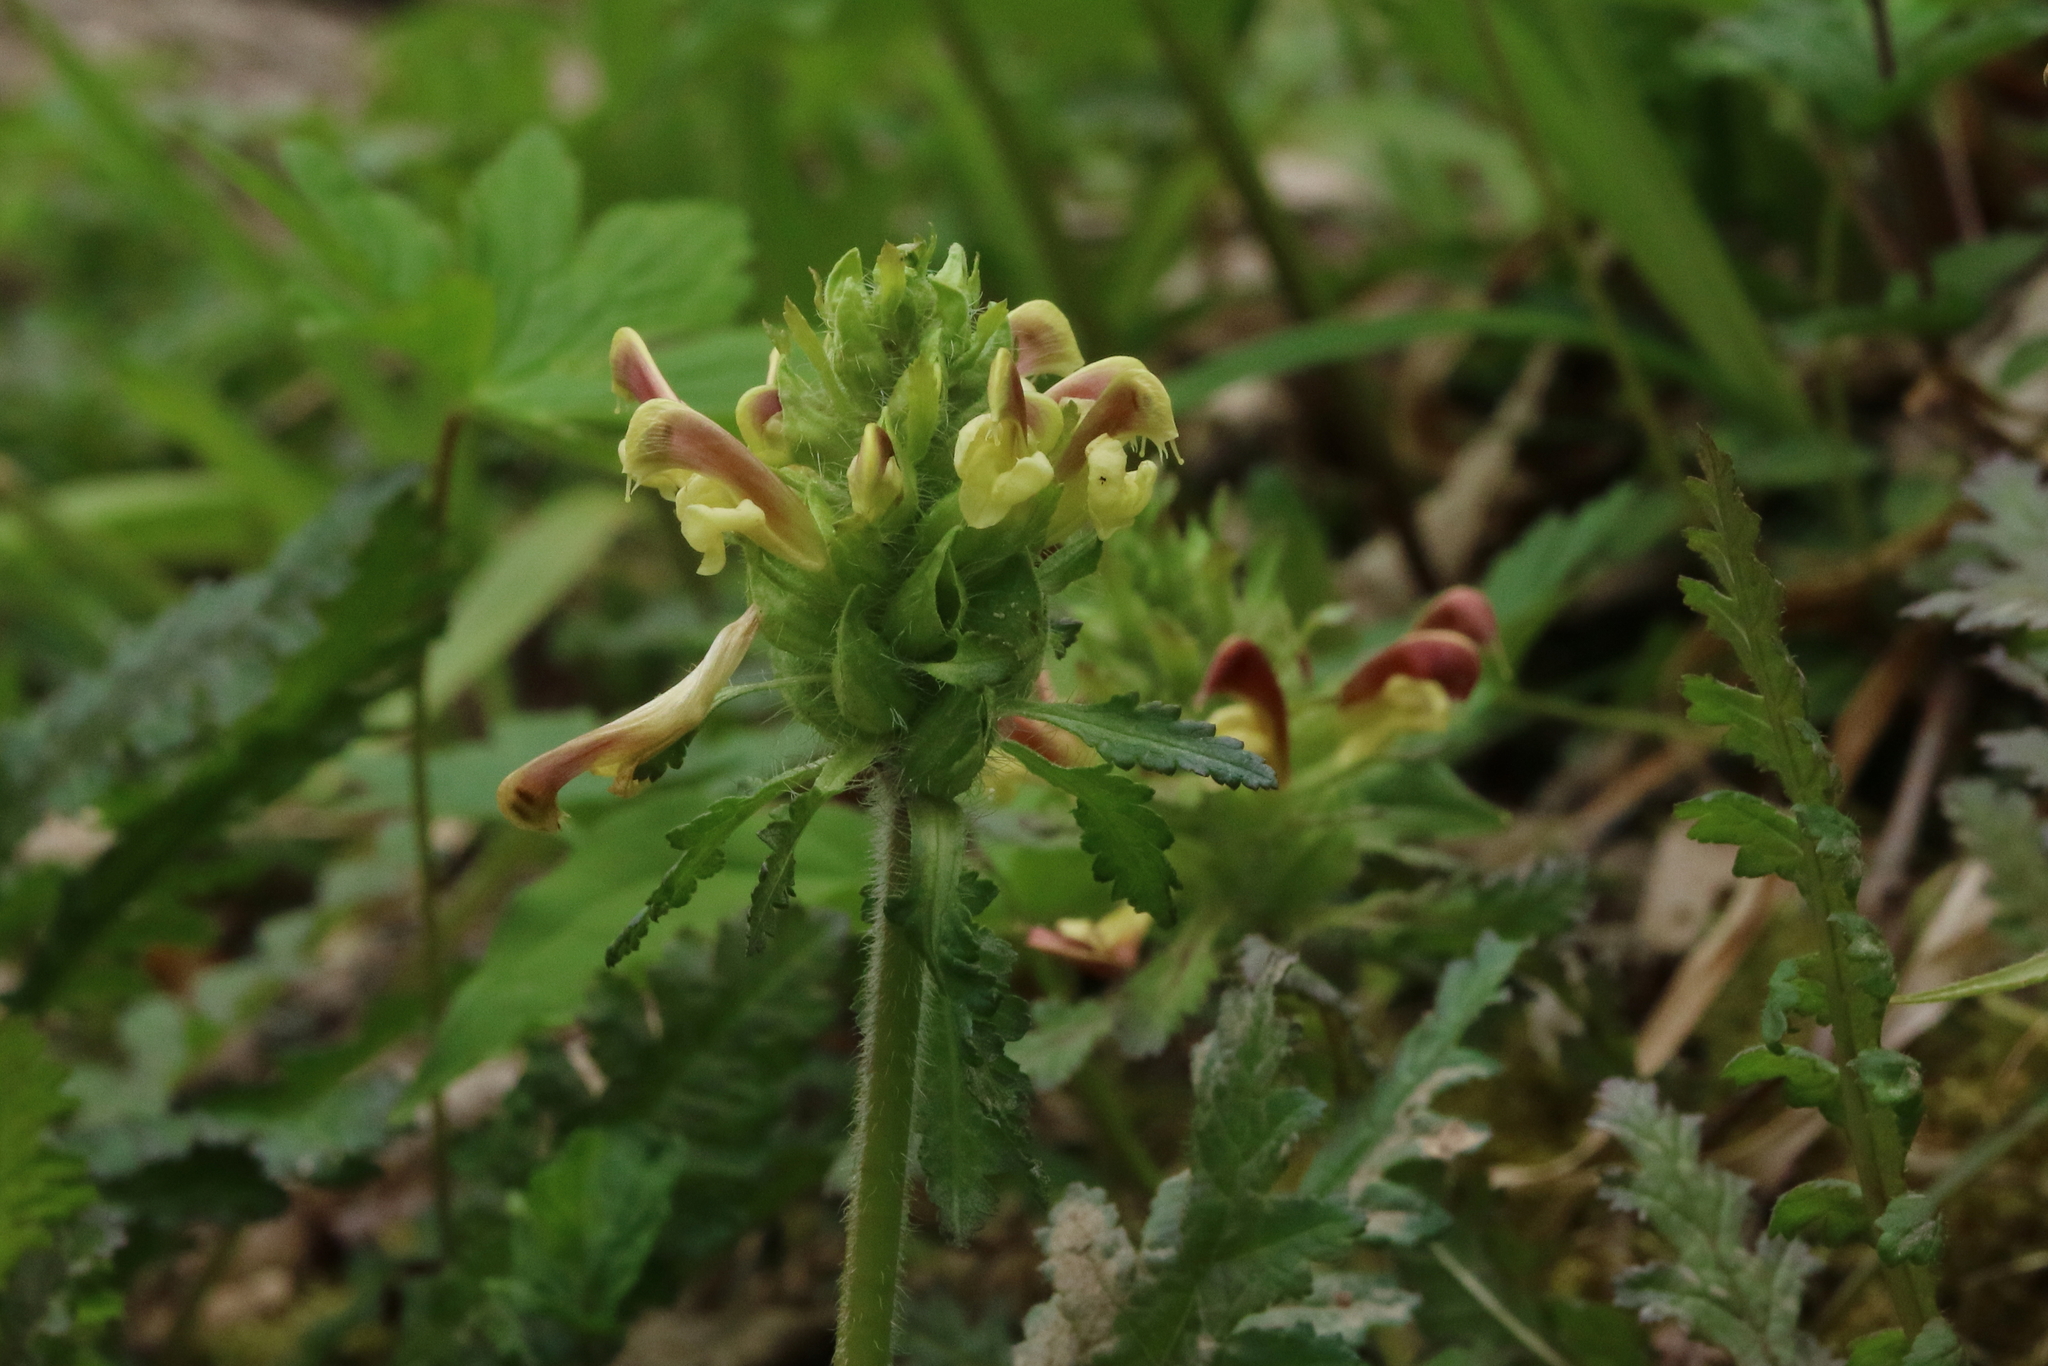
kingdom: Plantae
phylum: Tracheophyta
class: Magnoliopsida
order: Lamiales
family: Orobanchaceae
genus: Pedicularis
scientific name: Pedicularis canadensis
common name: Early lousewort
